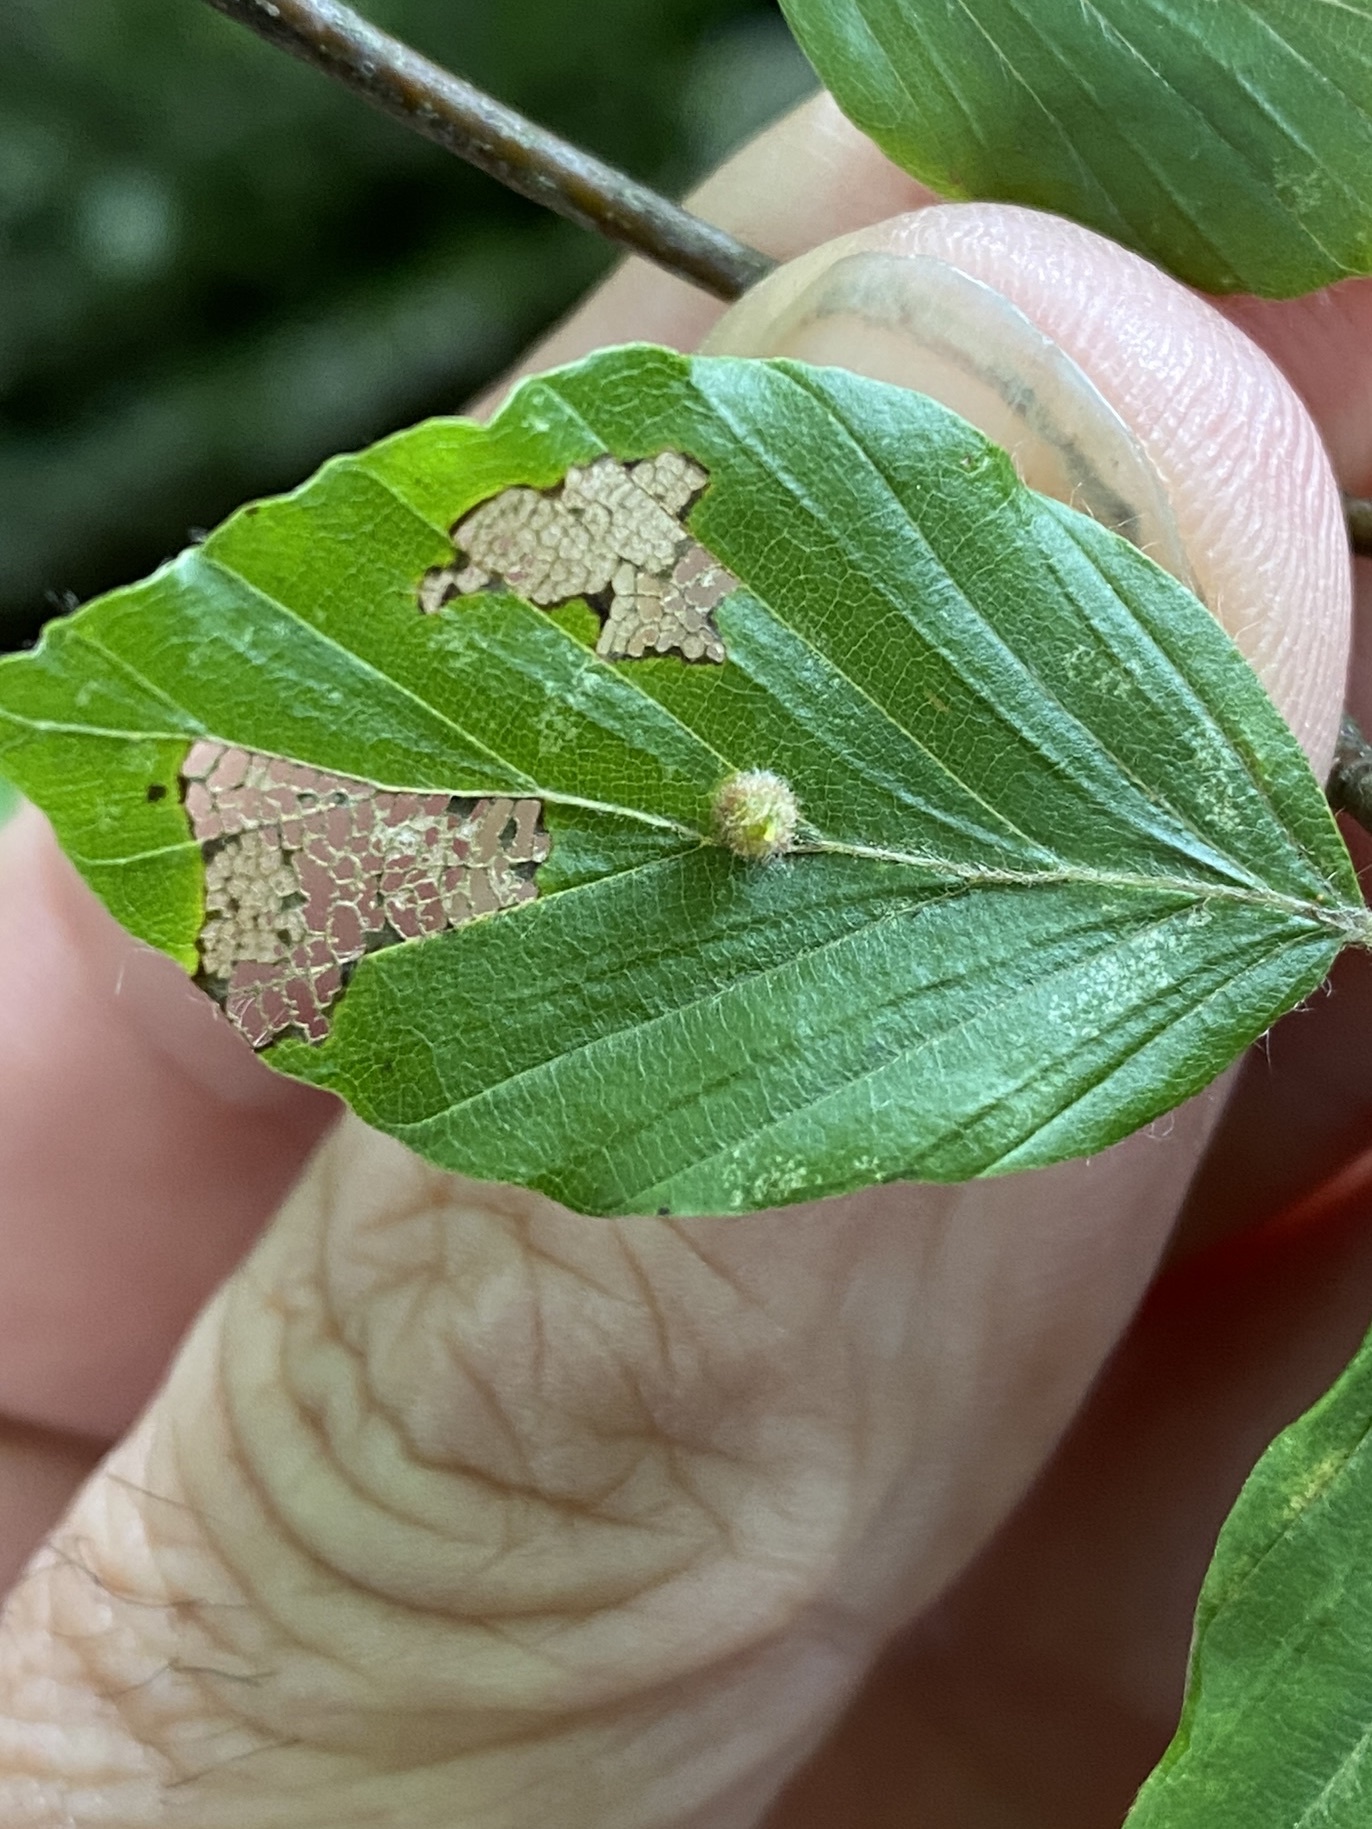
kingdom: Animalia
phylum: Arthropoda
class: Insecta
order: Diptera
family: Cecidomyiidae
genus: Hartigiola
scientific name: Hartigiola annulipes
